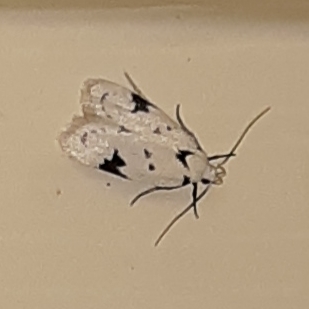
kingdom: Animalia
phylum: Arthropoda
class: Insecta
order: Lepidoptera
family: Oecophoridae
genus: Inga
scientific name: Inga sparsiciliella
